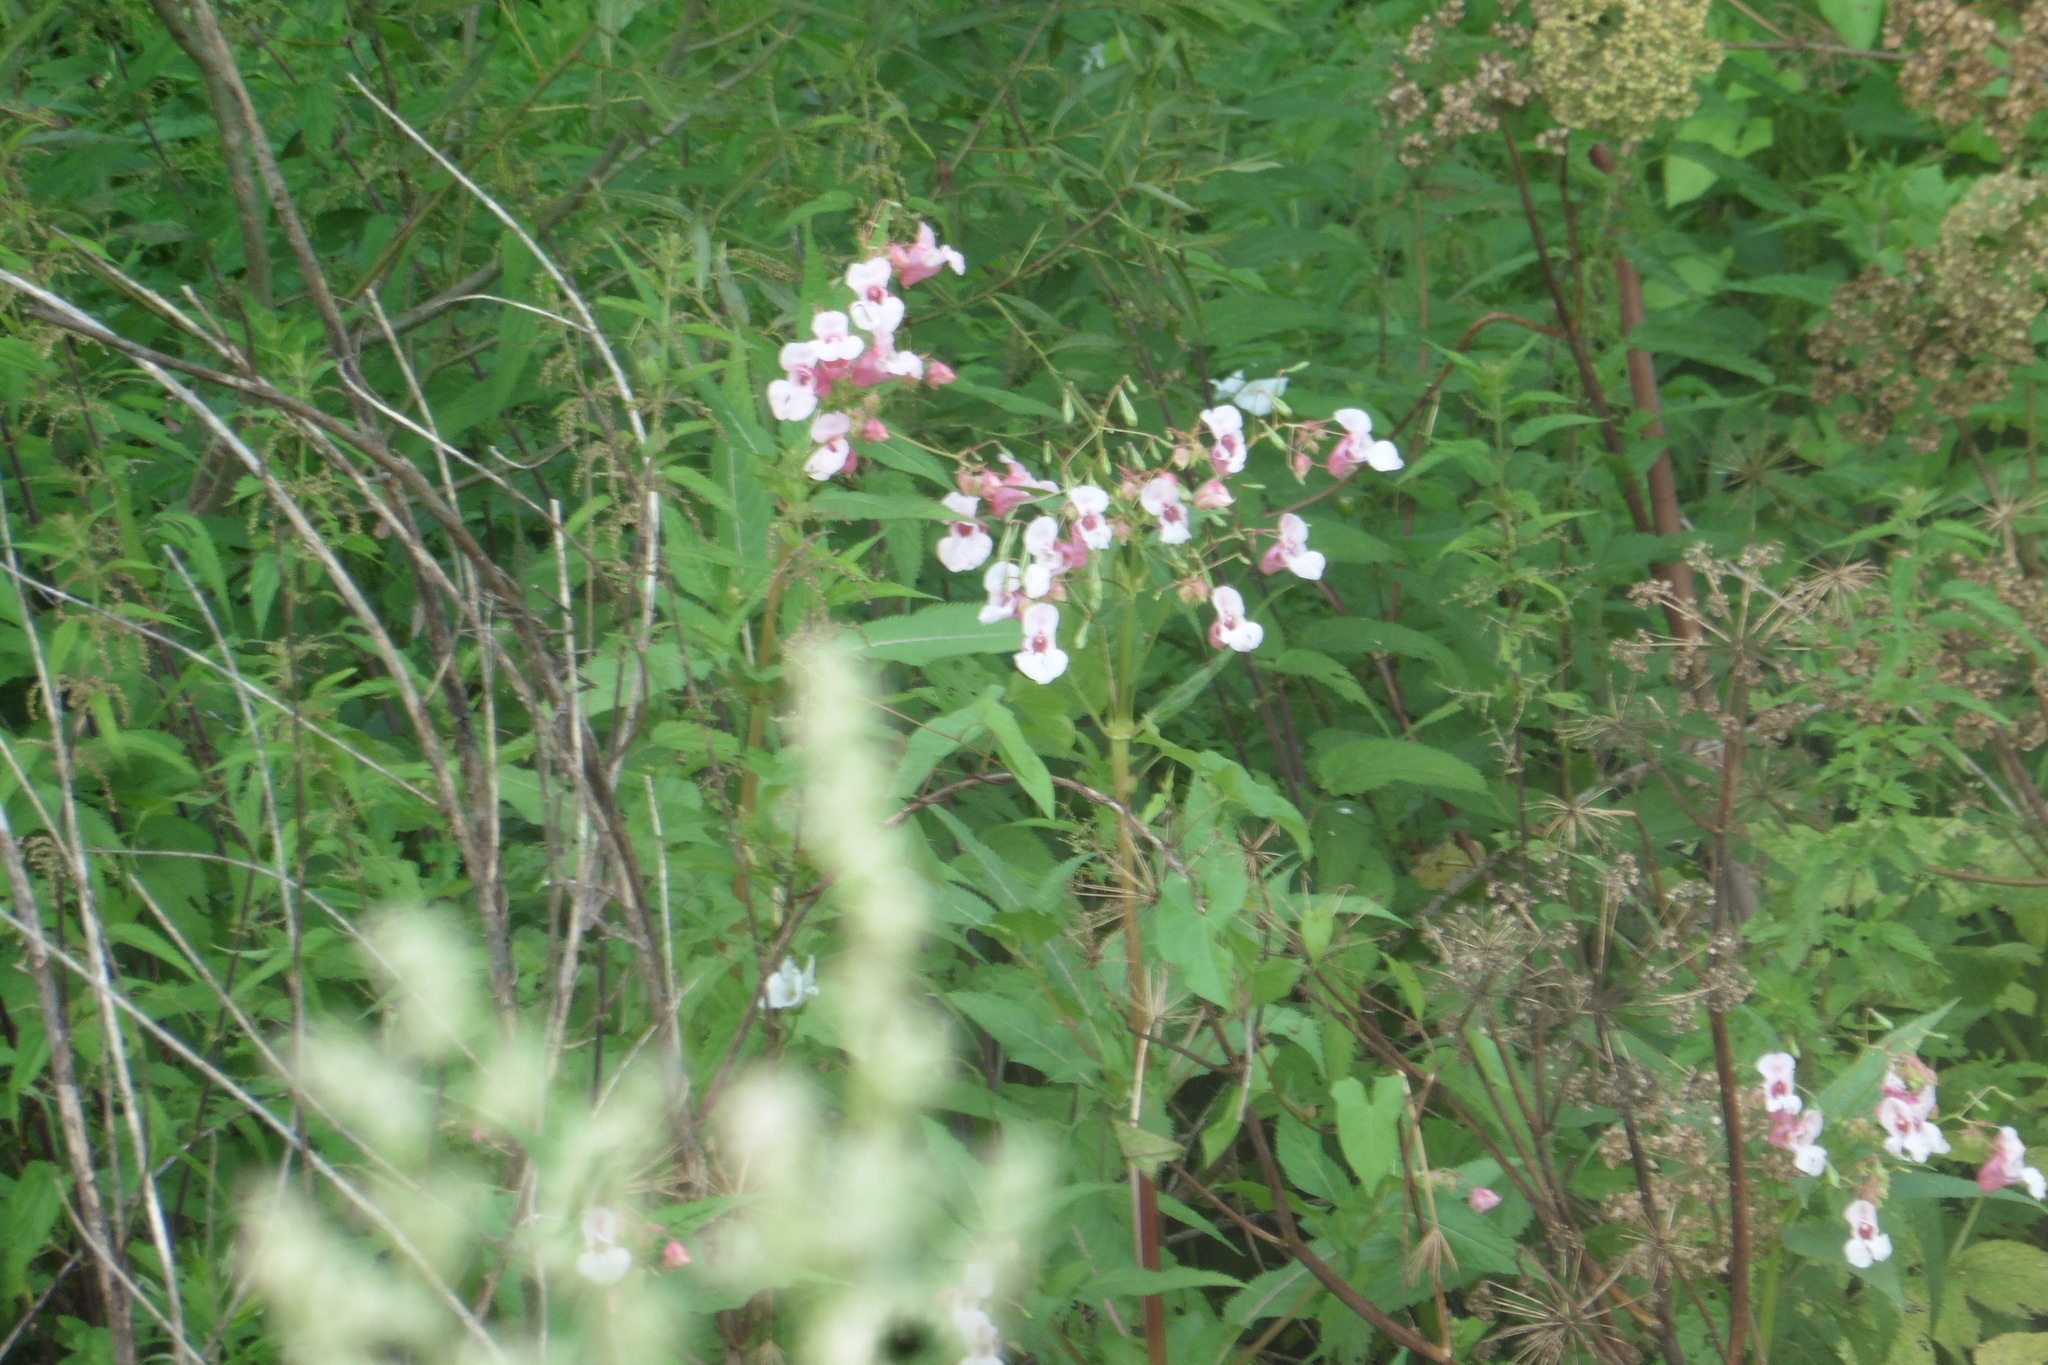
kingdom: Plantae
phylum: Tracheophyta
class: Magnoliopsida
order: Ericales
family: Balsaminaceae
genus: Impatiens
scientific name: Impatiens glandulifera
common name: Himalayan balsam
